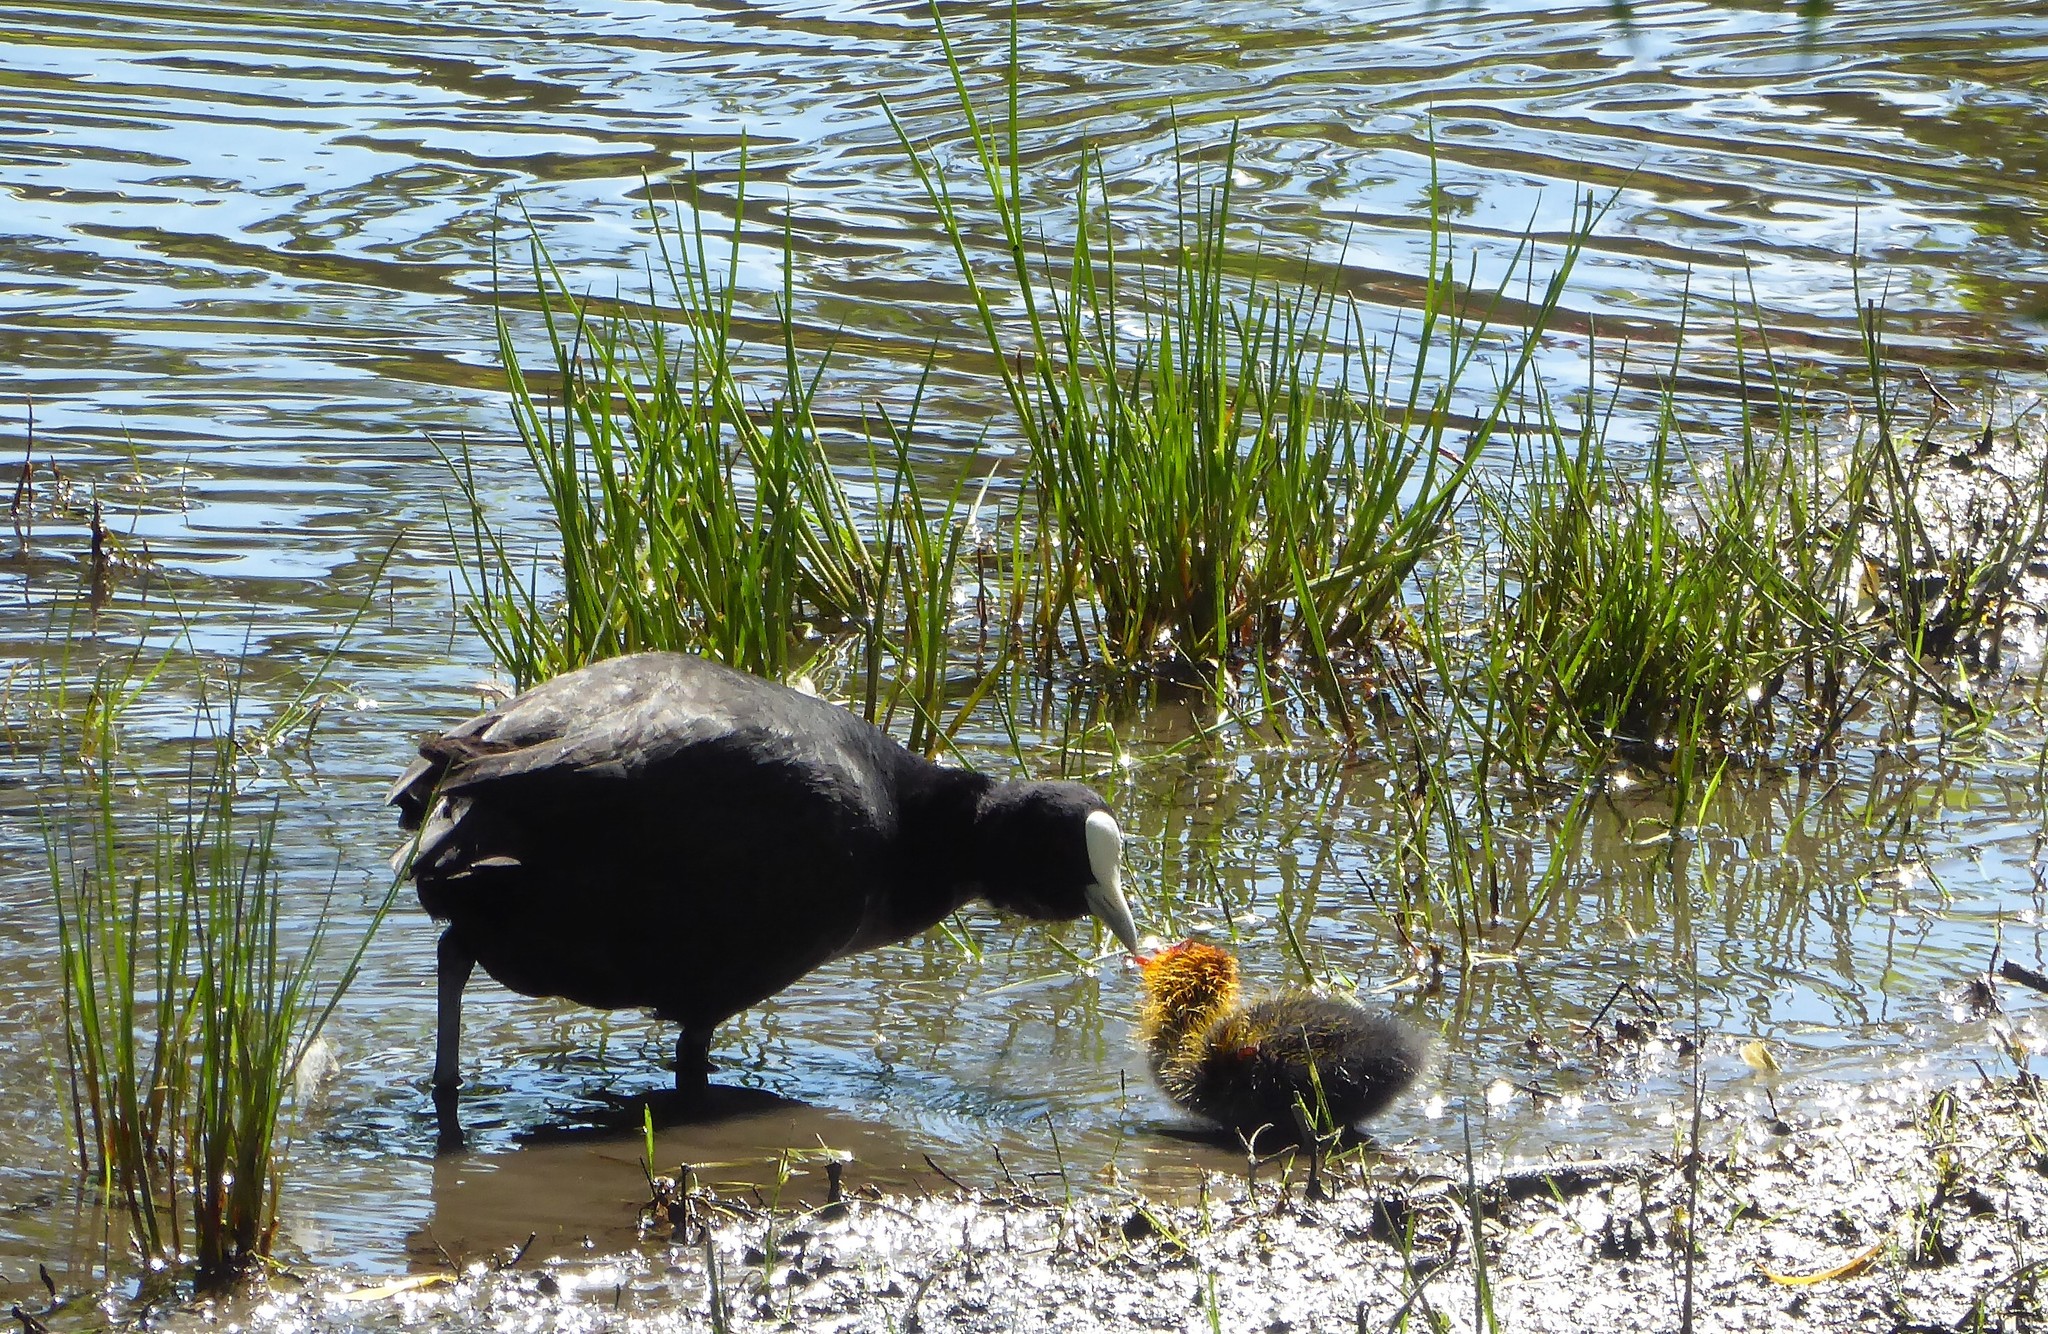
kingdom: Animalia
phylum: Chordata
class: Aves
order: Gruiformes
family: Rallidae
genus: Fulica
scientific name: Fulica atra
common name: Eurasian coot
